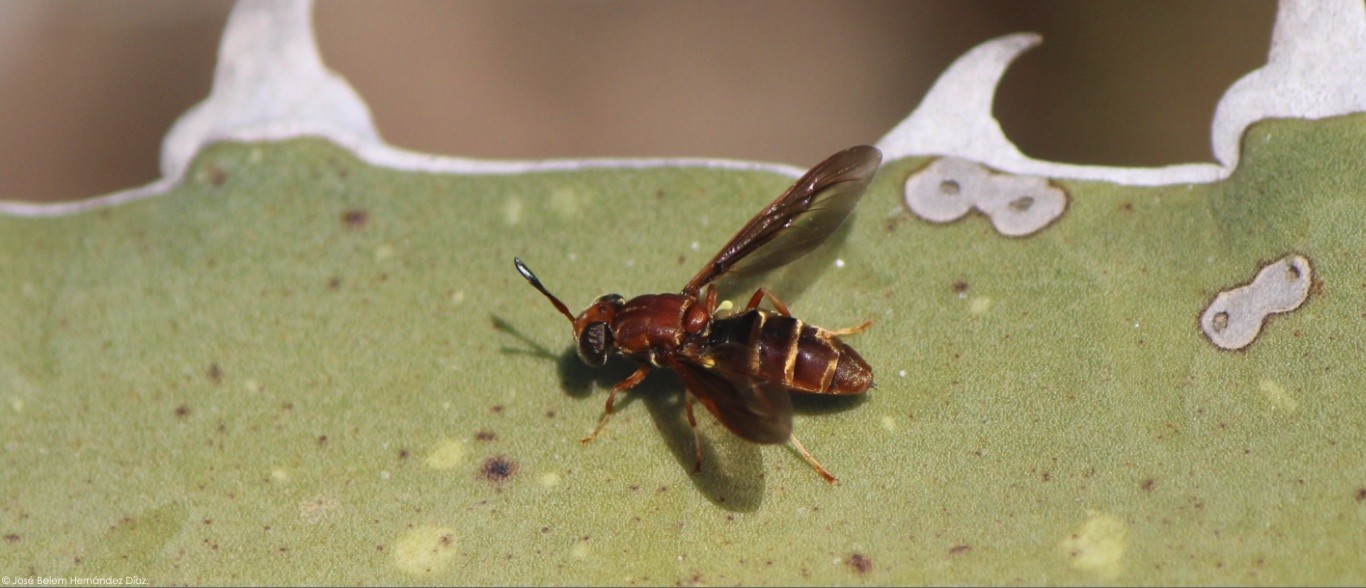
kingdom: Animalia
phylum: Arthropoda
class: Insecta
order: Diptera
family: Stratiomyidae
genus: Hermetia
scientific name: Hermetia comstocki
